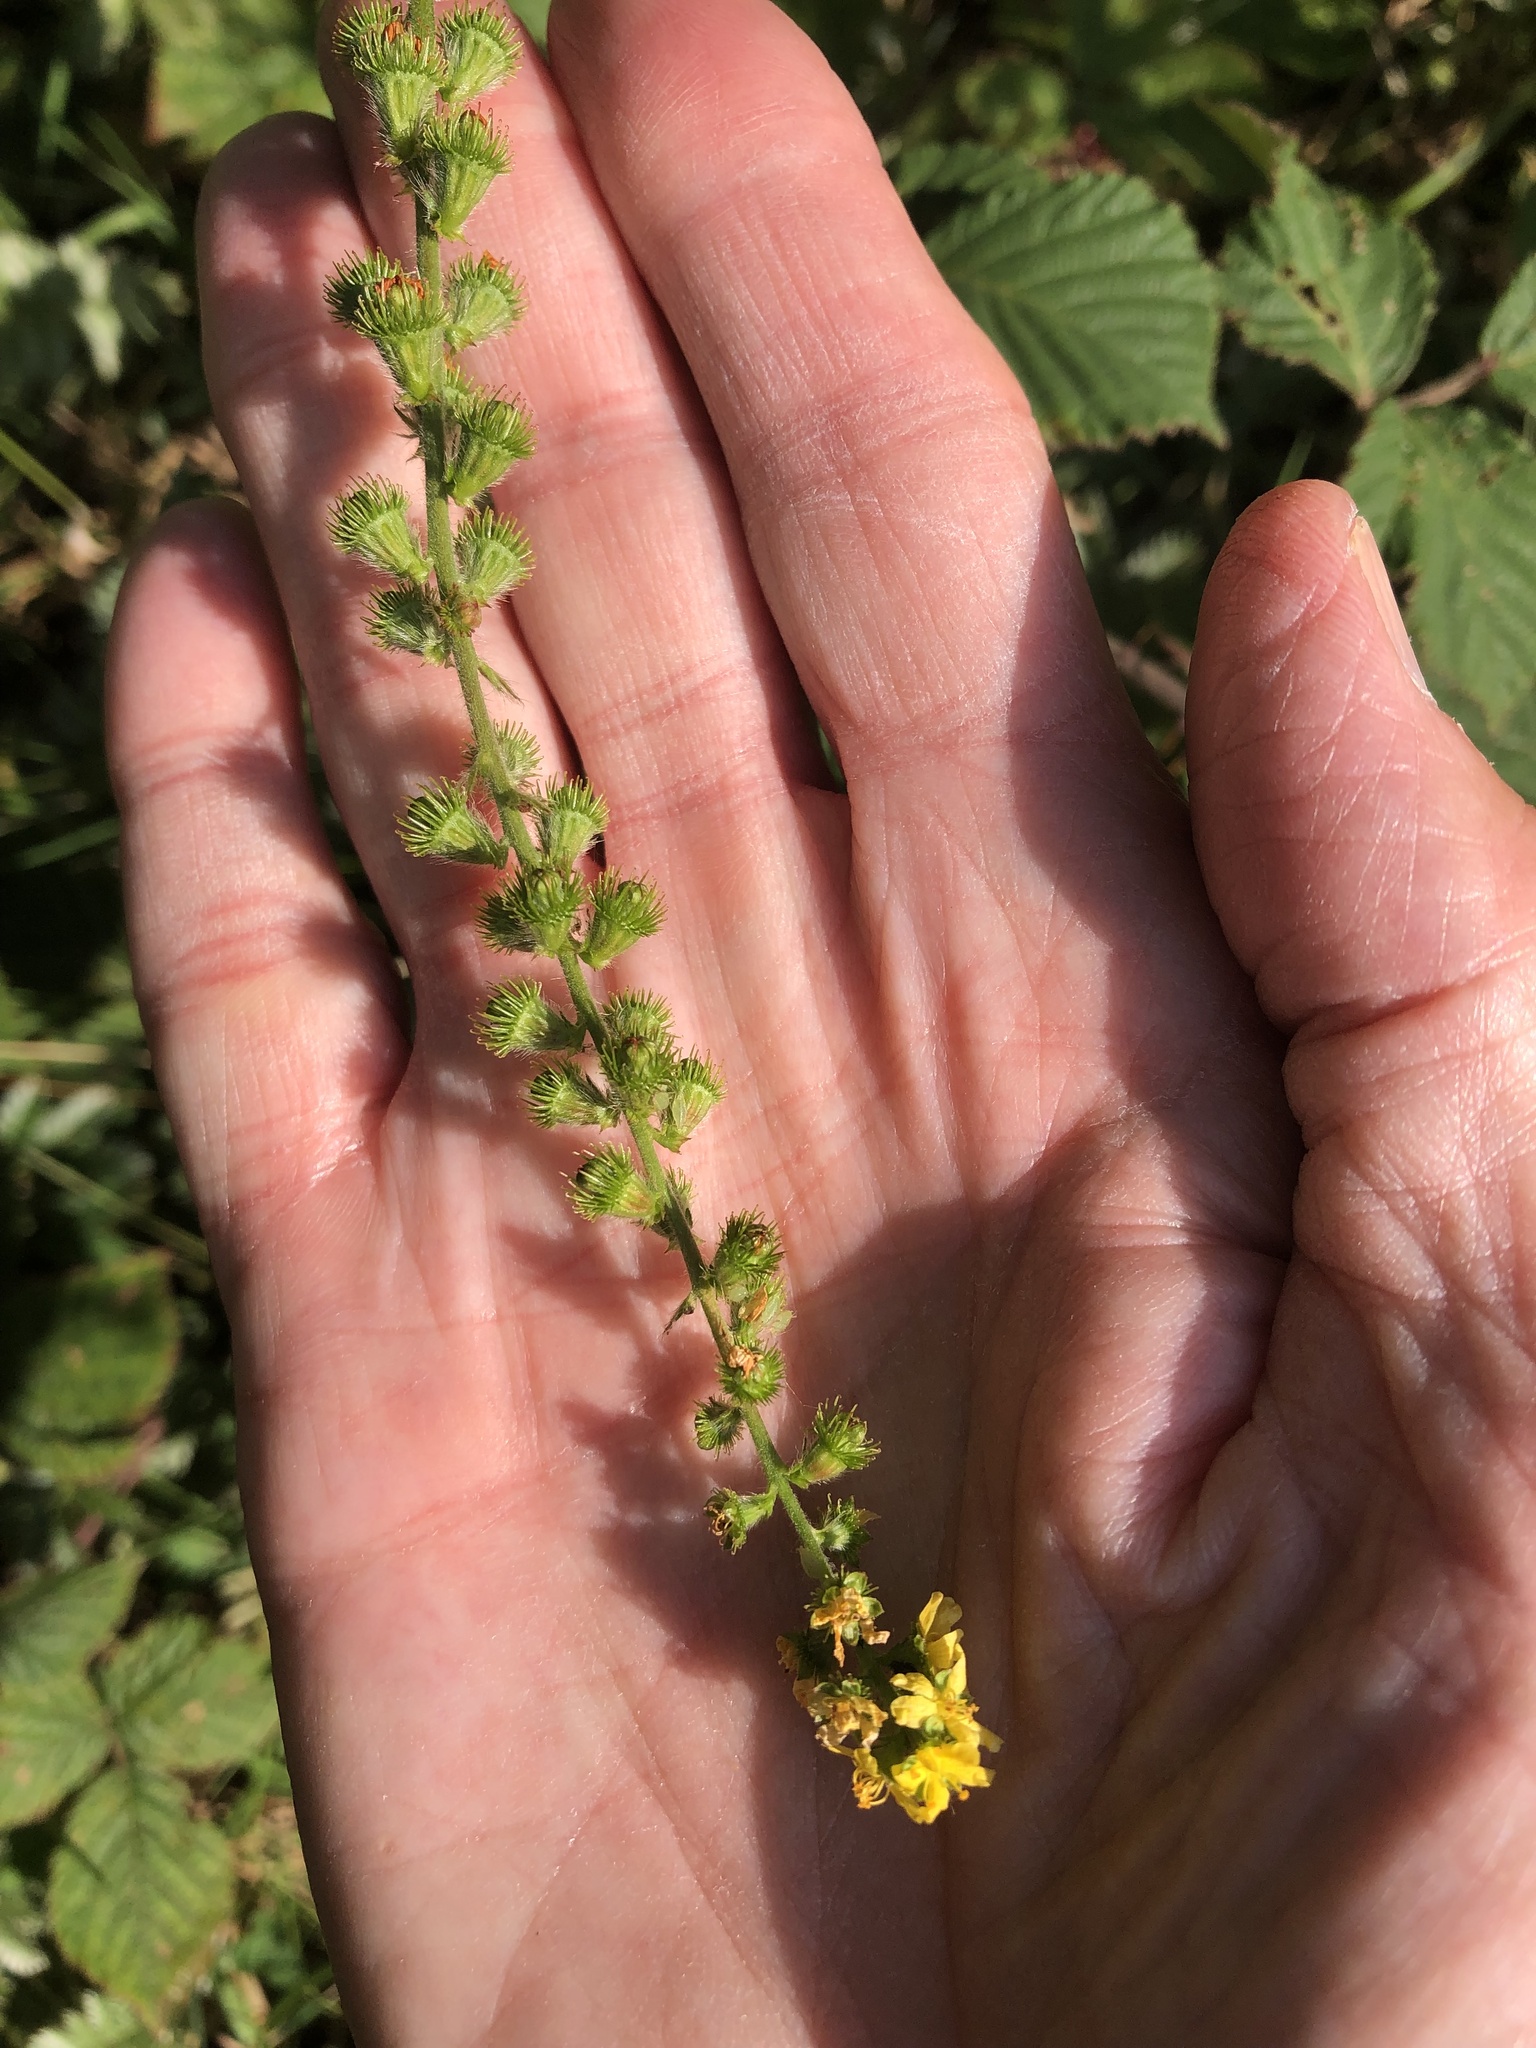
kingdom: Plantae
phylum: Tracheophyta
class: Magnoliopsida
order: Rosales
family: Rosaceae
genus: Agrimonia
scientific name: Agrimonia eupatoria
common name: Agrimony
